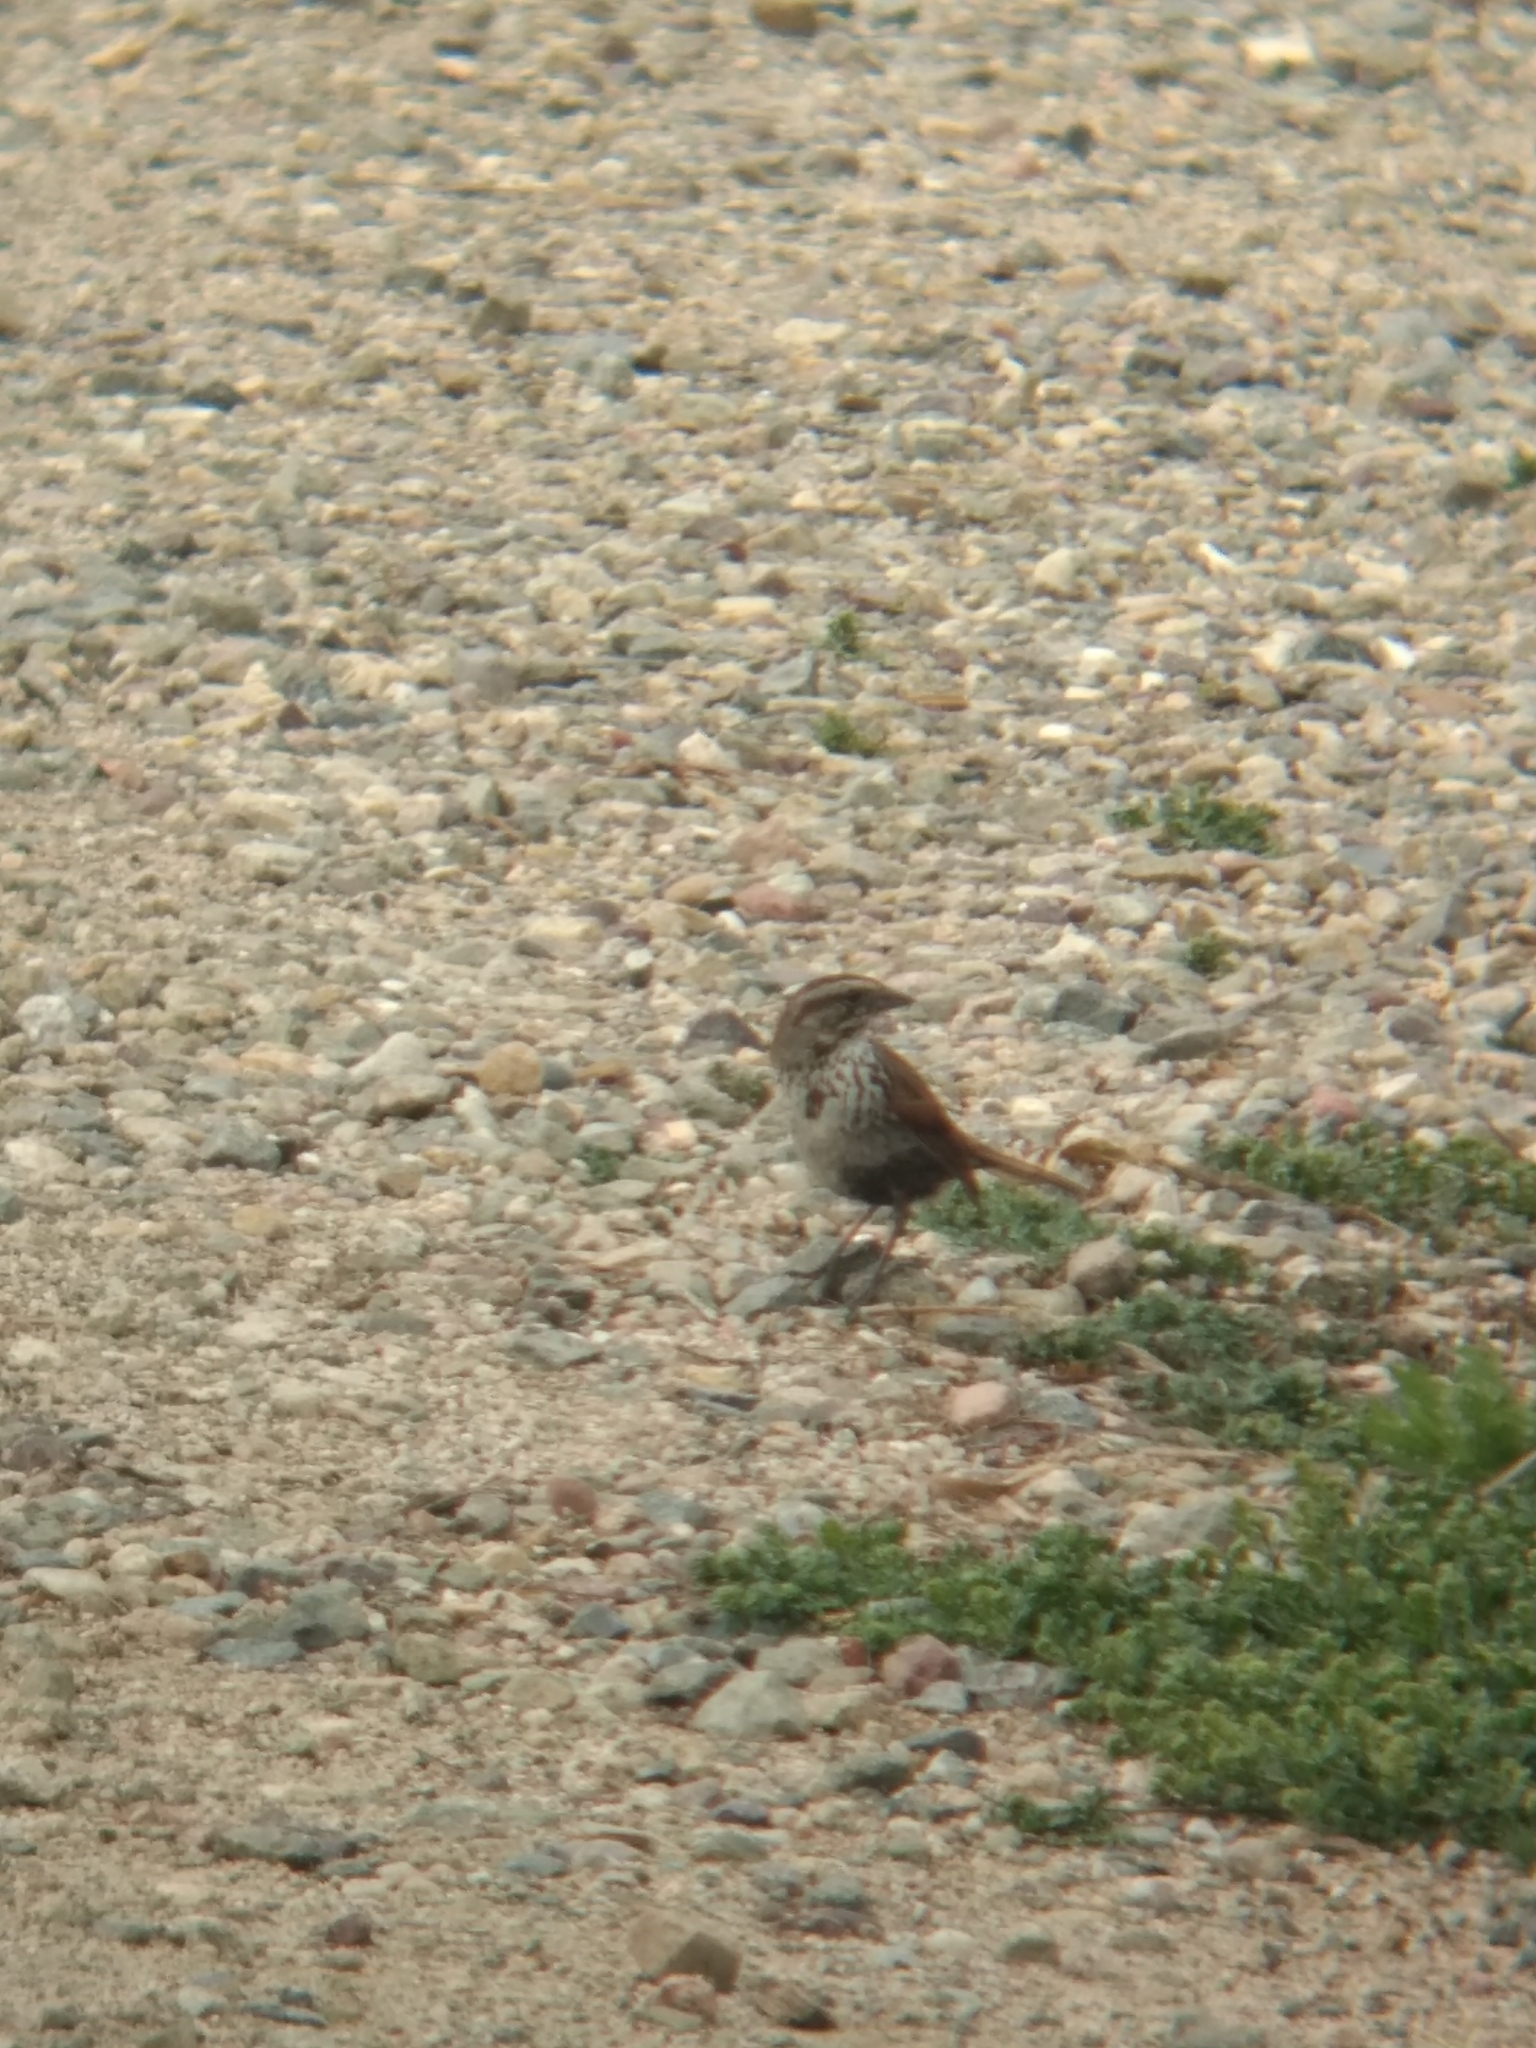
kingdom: Animalia
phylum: Chordata
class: Aves
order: Passeriformes
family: Passerellidae
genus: Melospiza
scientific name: Melospiza melodia
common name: Song sparrow
